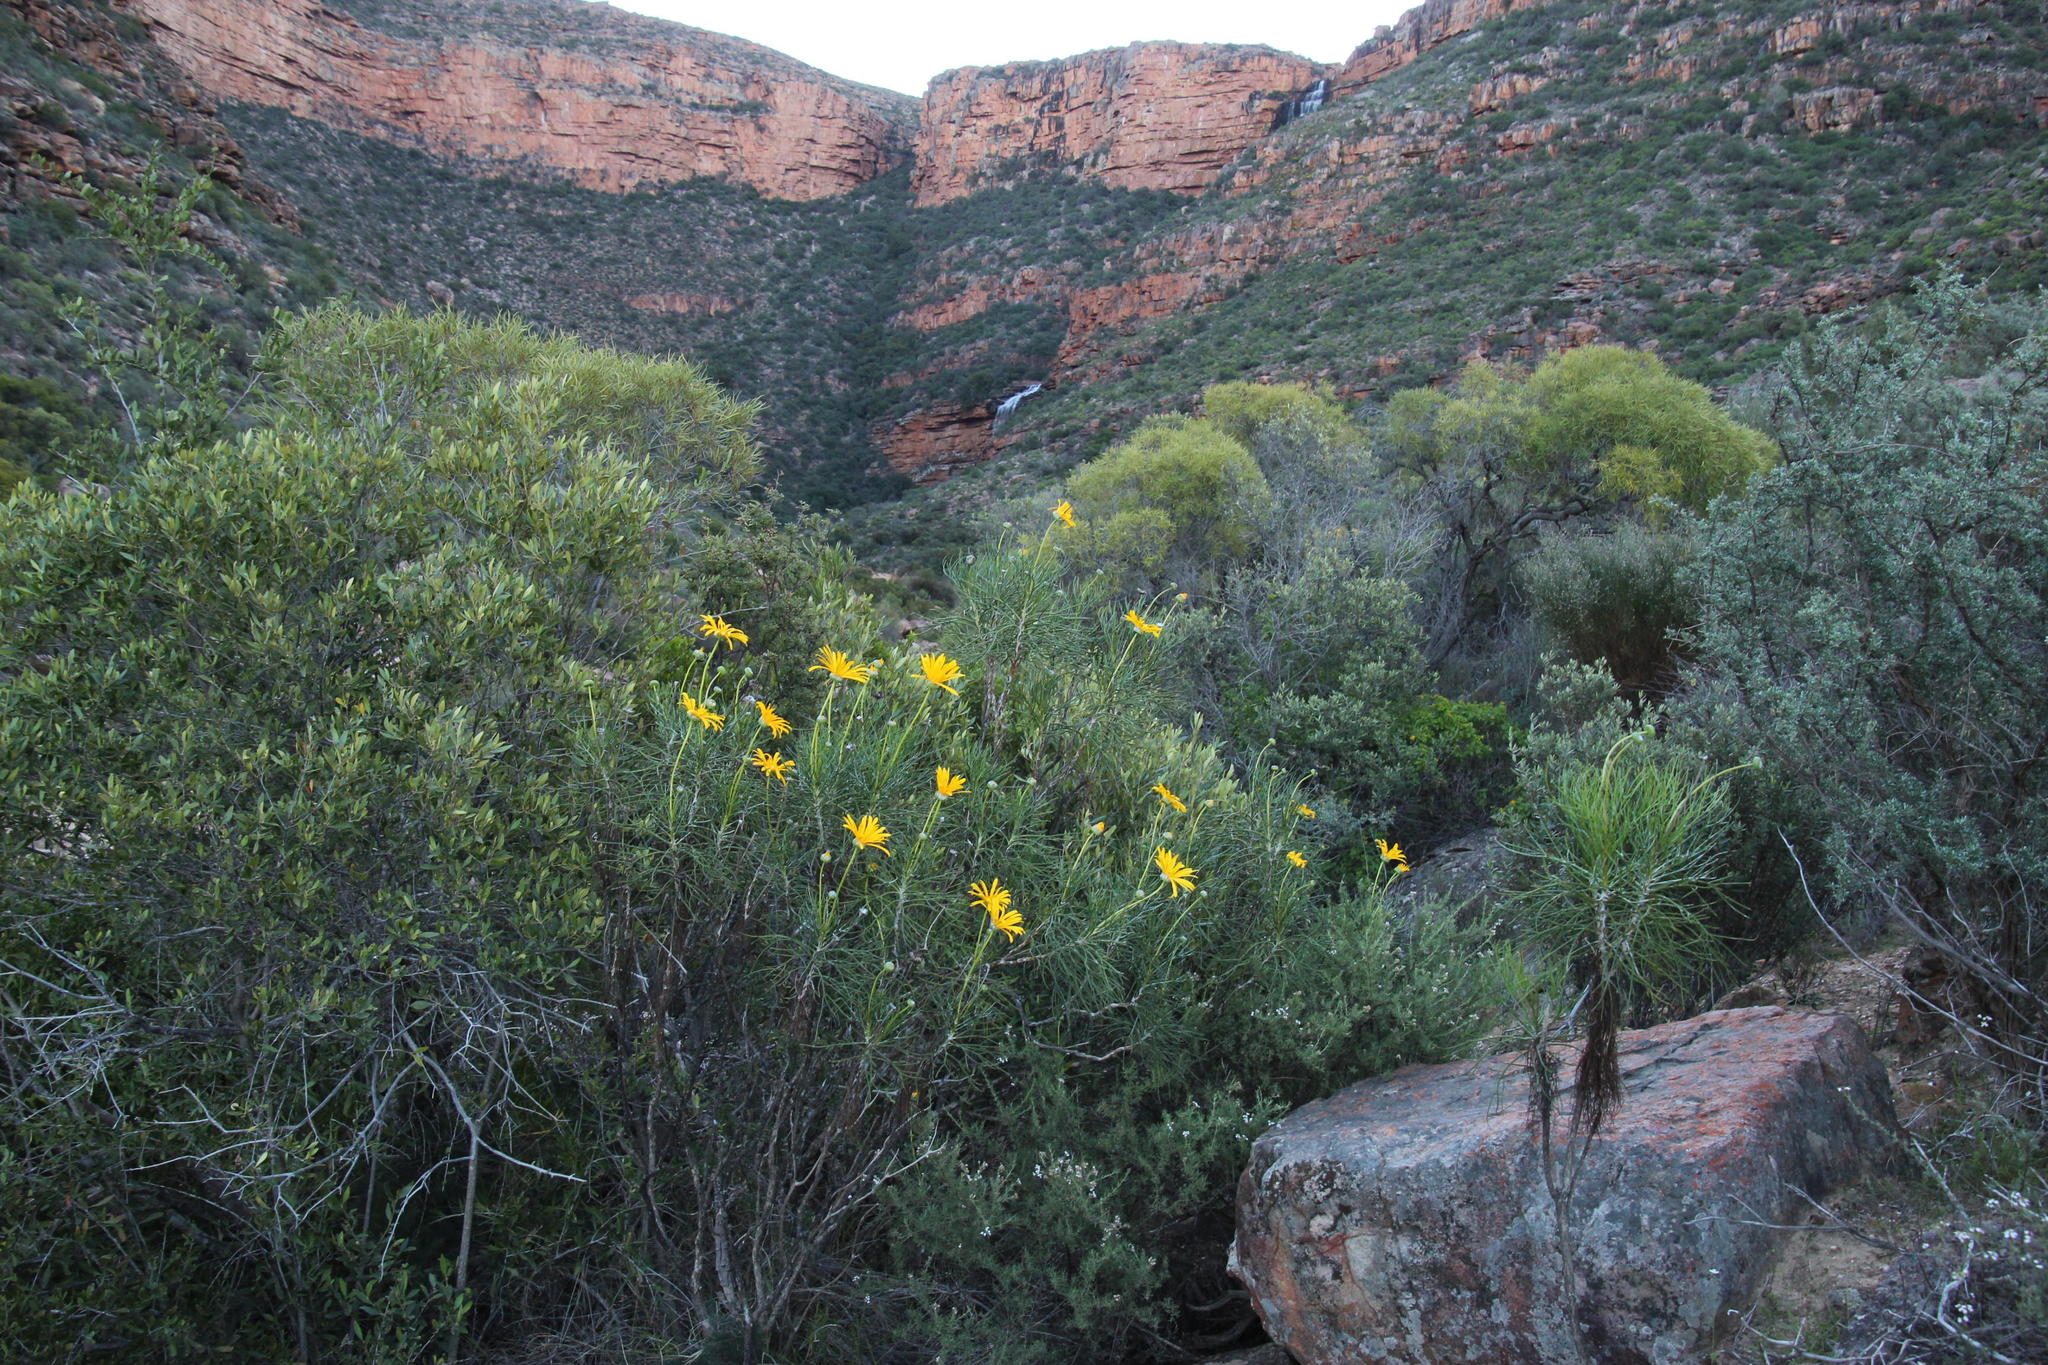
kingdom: Plantae
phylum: Tracheophyta
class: Magnoliopsida
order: Asterales
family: Asteraceae
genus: Euryops
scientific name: Euryops speciosissimus
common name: Clanwilliam daisy
